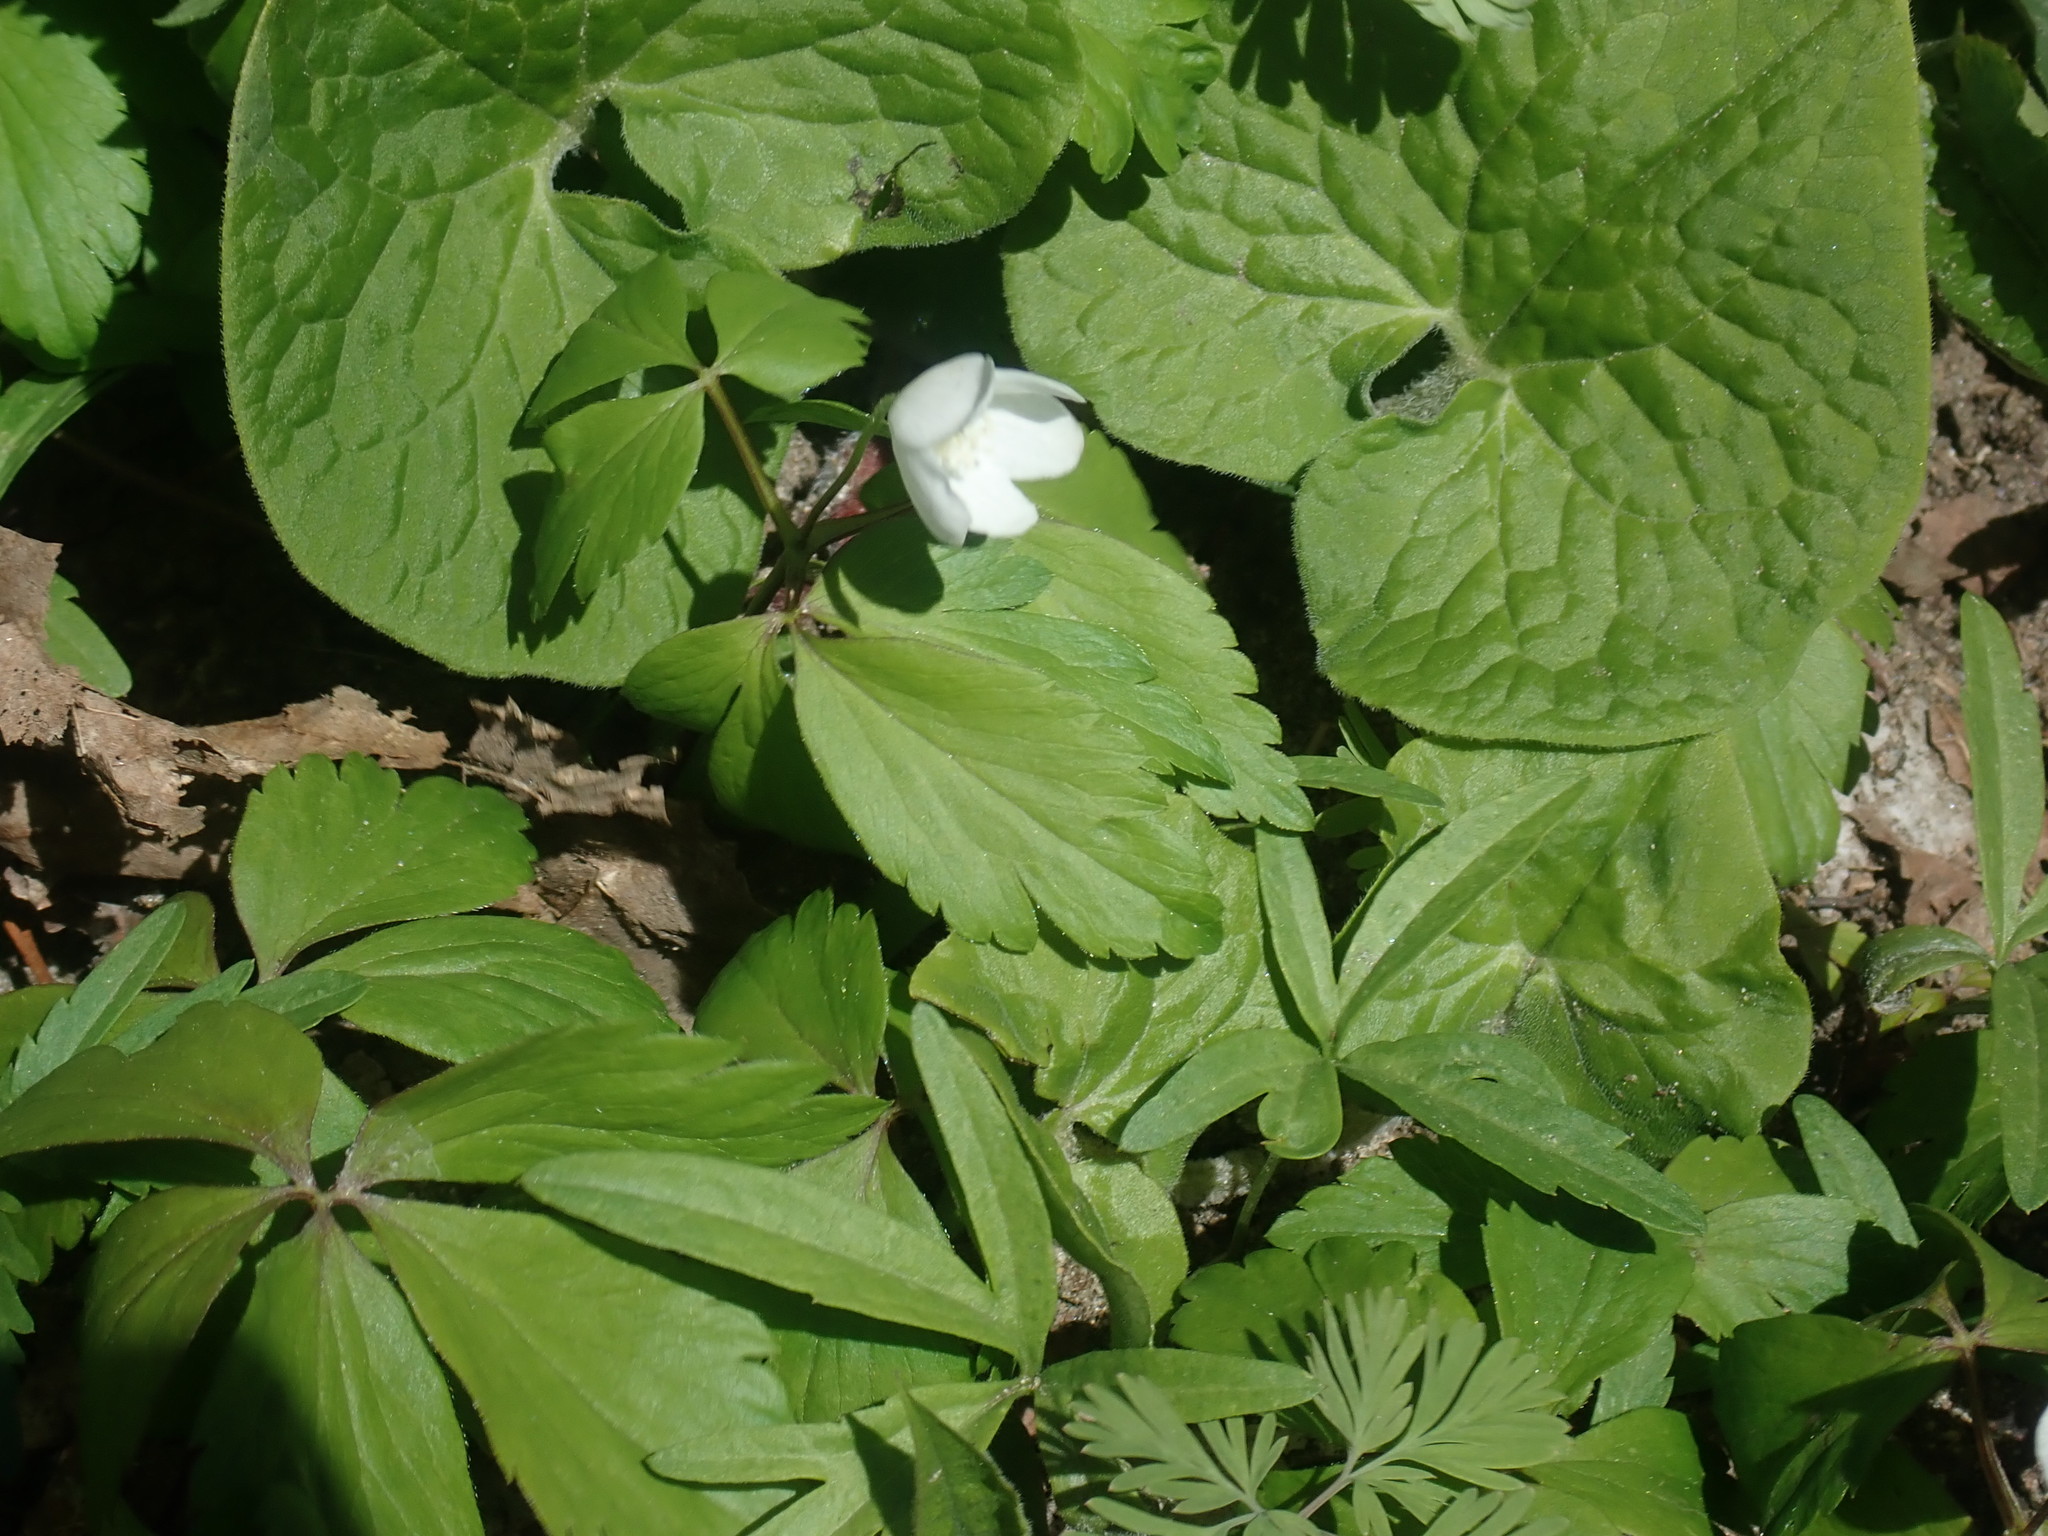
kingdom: Plantae
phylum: Tracheophyta
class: Magnoliopsida
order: Ranunculales
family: Ranunculaceae
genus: Anemone
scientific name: Anemone quinquefolia
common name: Wood anemone
